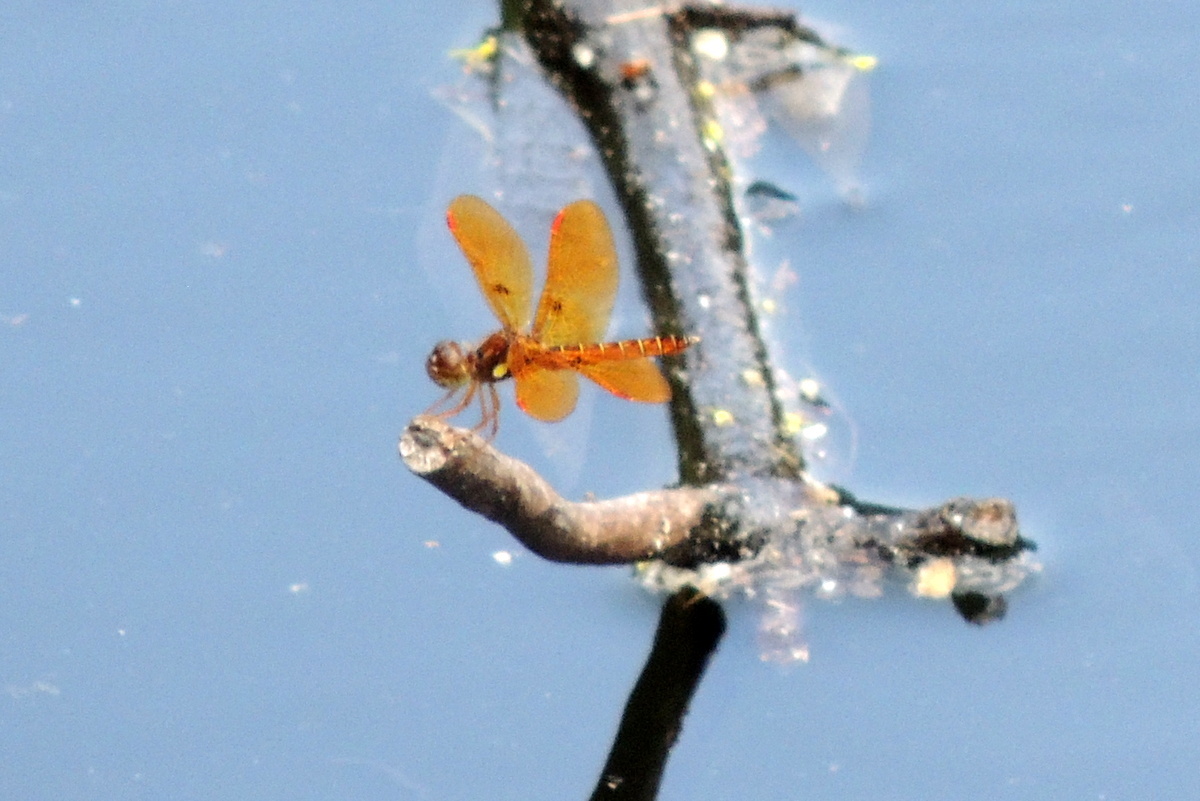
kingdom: Animalia
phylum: Arthropoda
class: Insecta
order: Odonata
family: Libellulidae
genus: Perithemis
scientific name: Perithemis tenera
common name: Eastern amberwing
